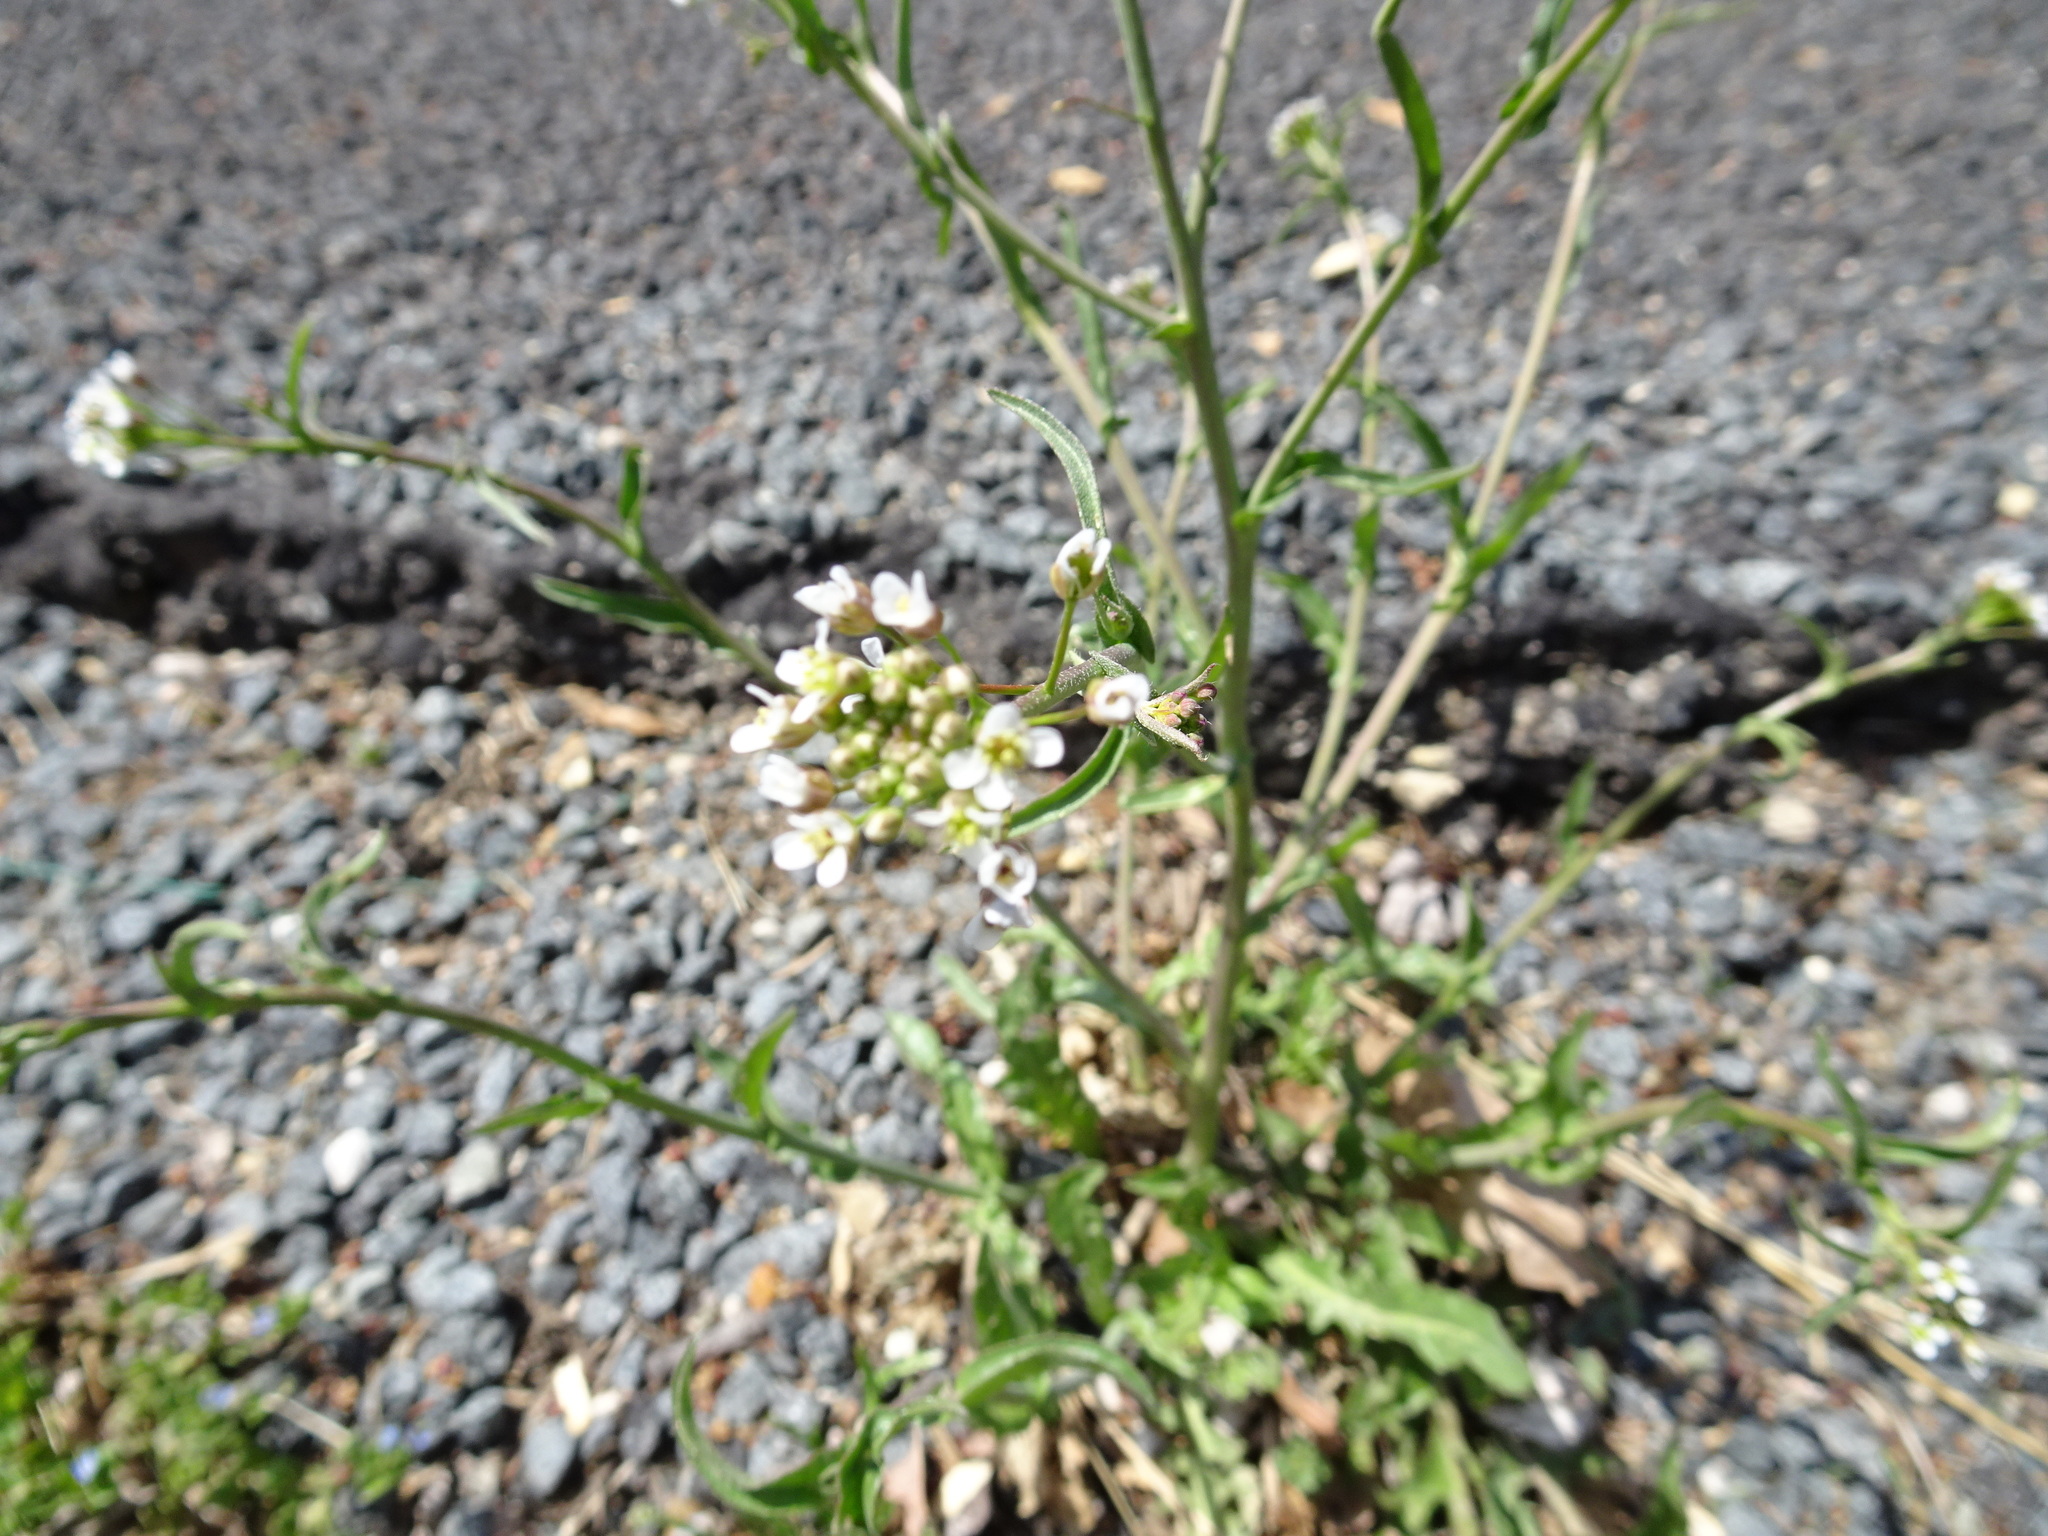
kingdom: Plantae
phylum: Tracheophyta
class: Magnoliopsida
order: Brassicales
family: Brassicaceae
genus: Capsella
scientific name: Capsella bursa-pastoris
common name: Shepherd's purse
